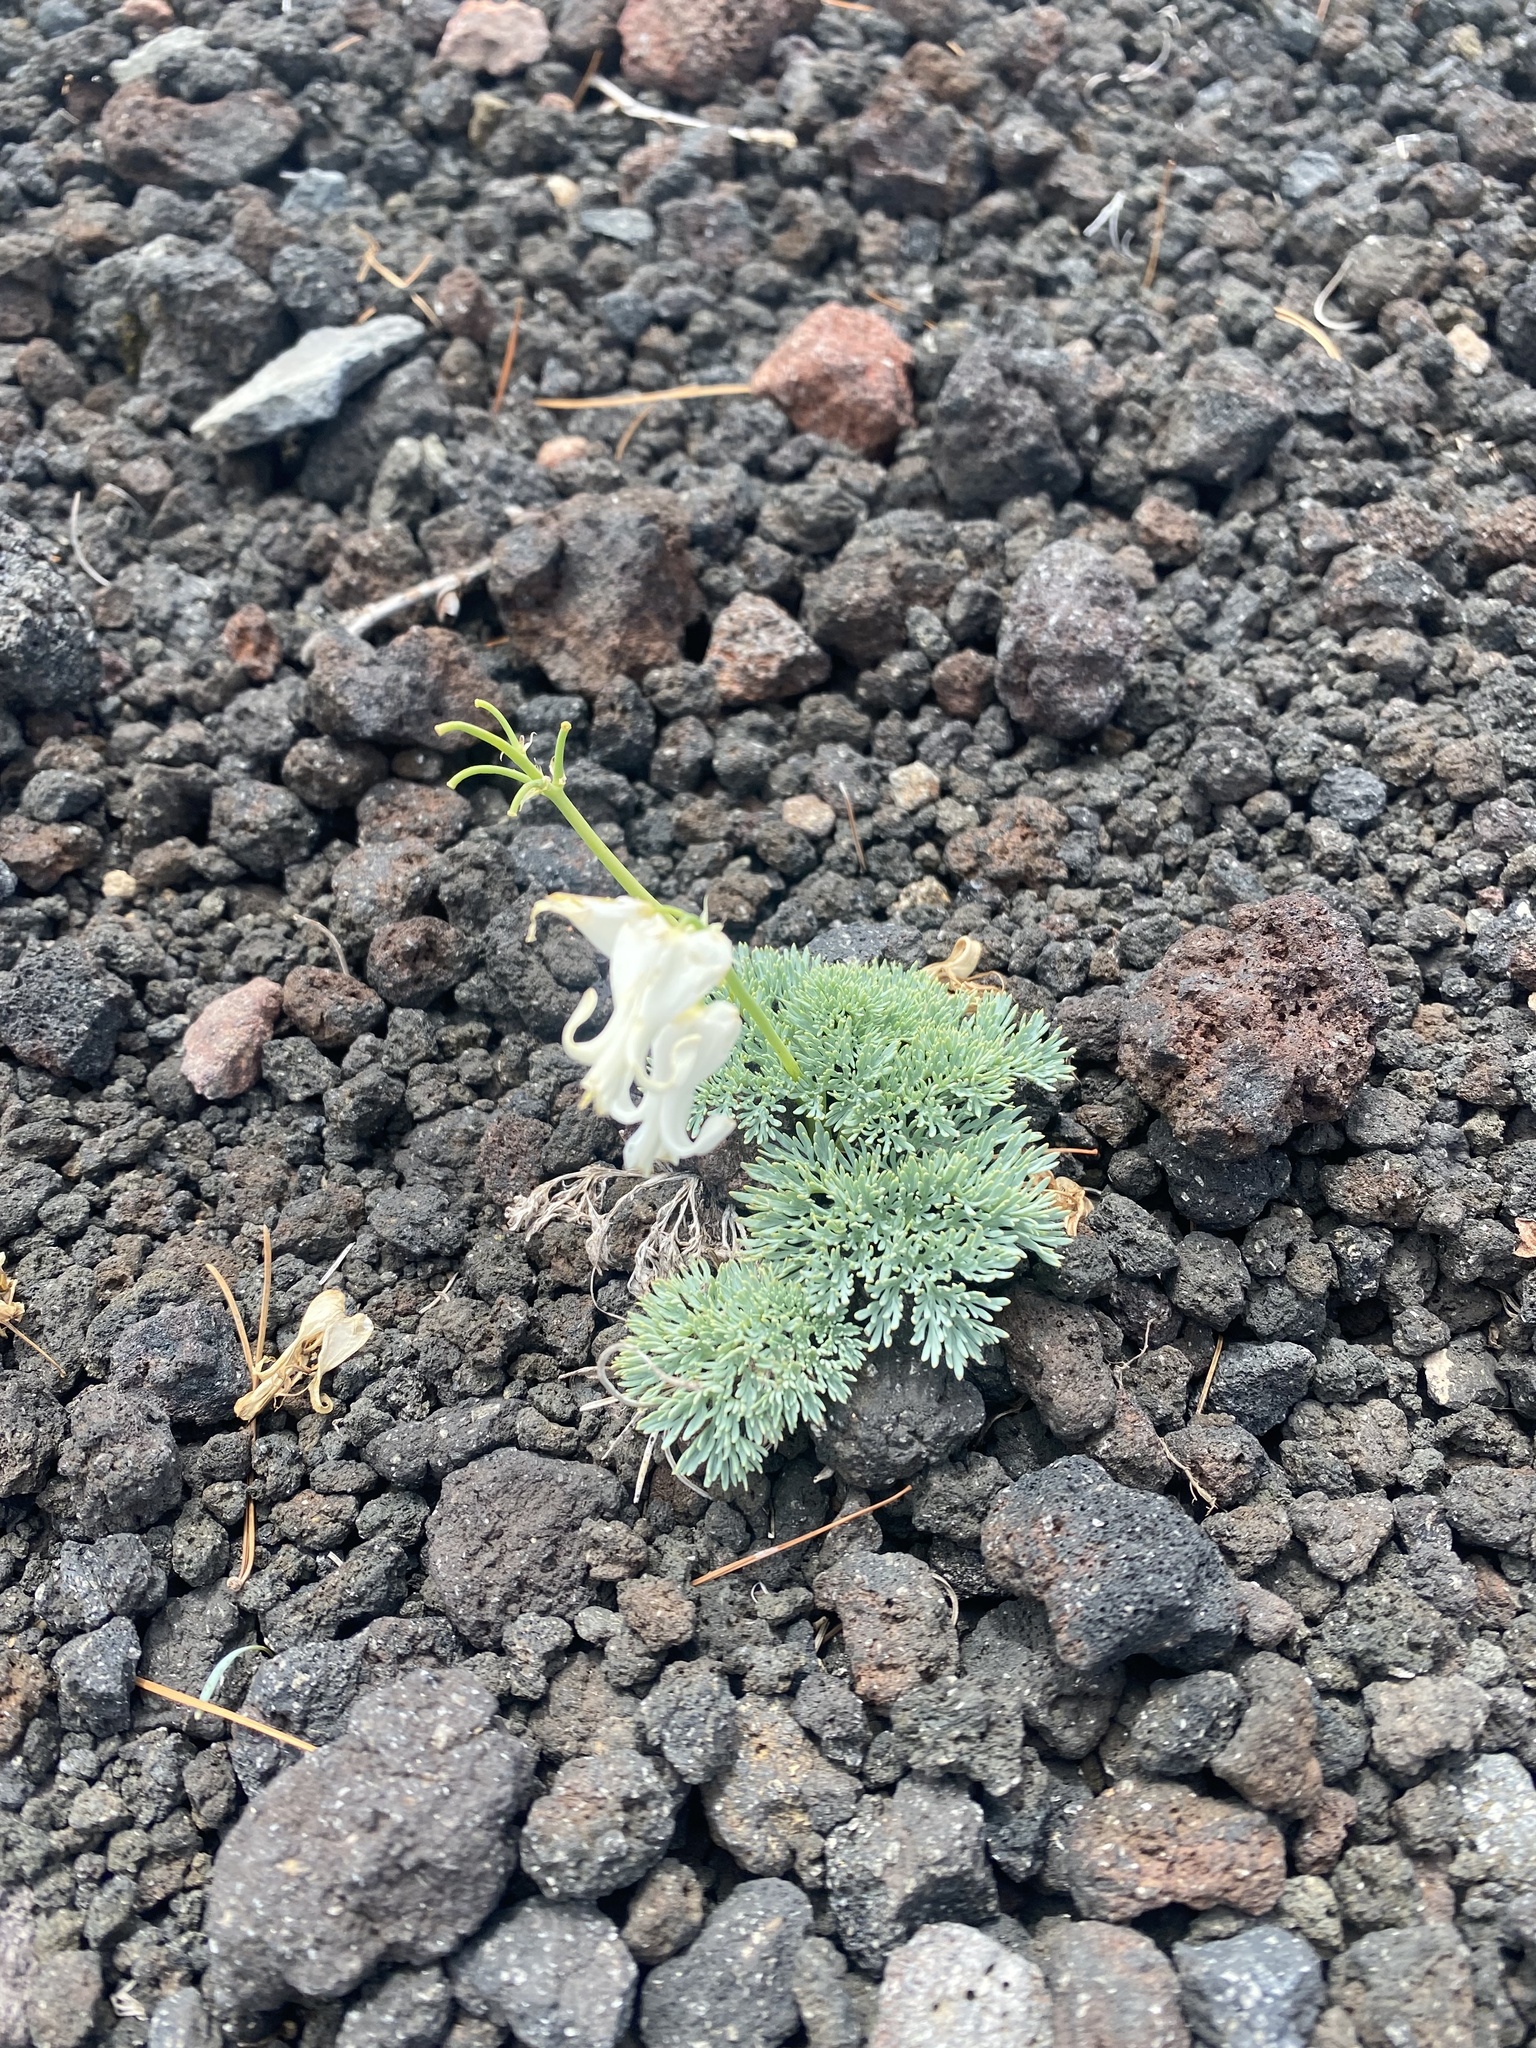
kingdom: Plantae
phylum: Tracheophyta
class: Magnoliopsida
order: Ranunculales
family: Papaveraceae
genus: Dicentra
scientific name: Dicentra peregrina
